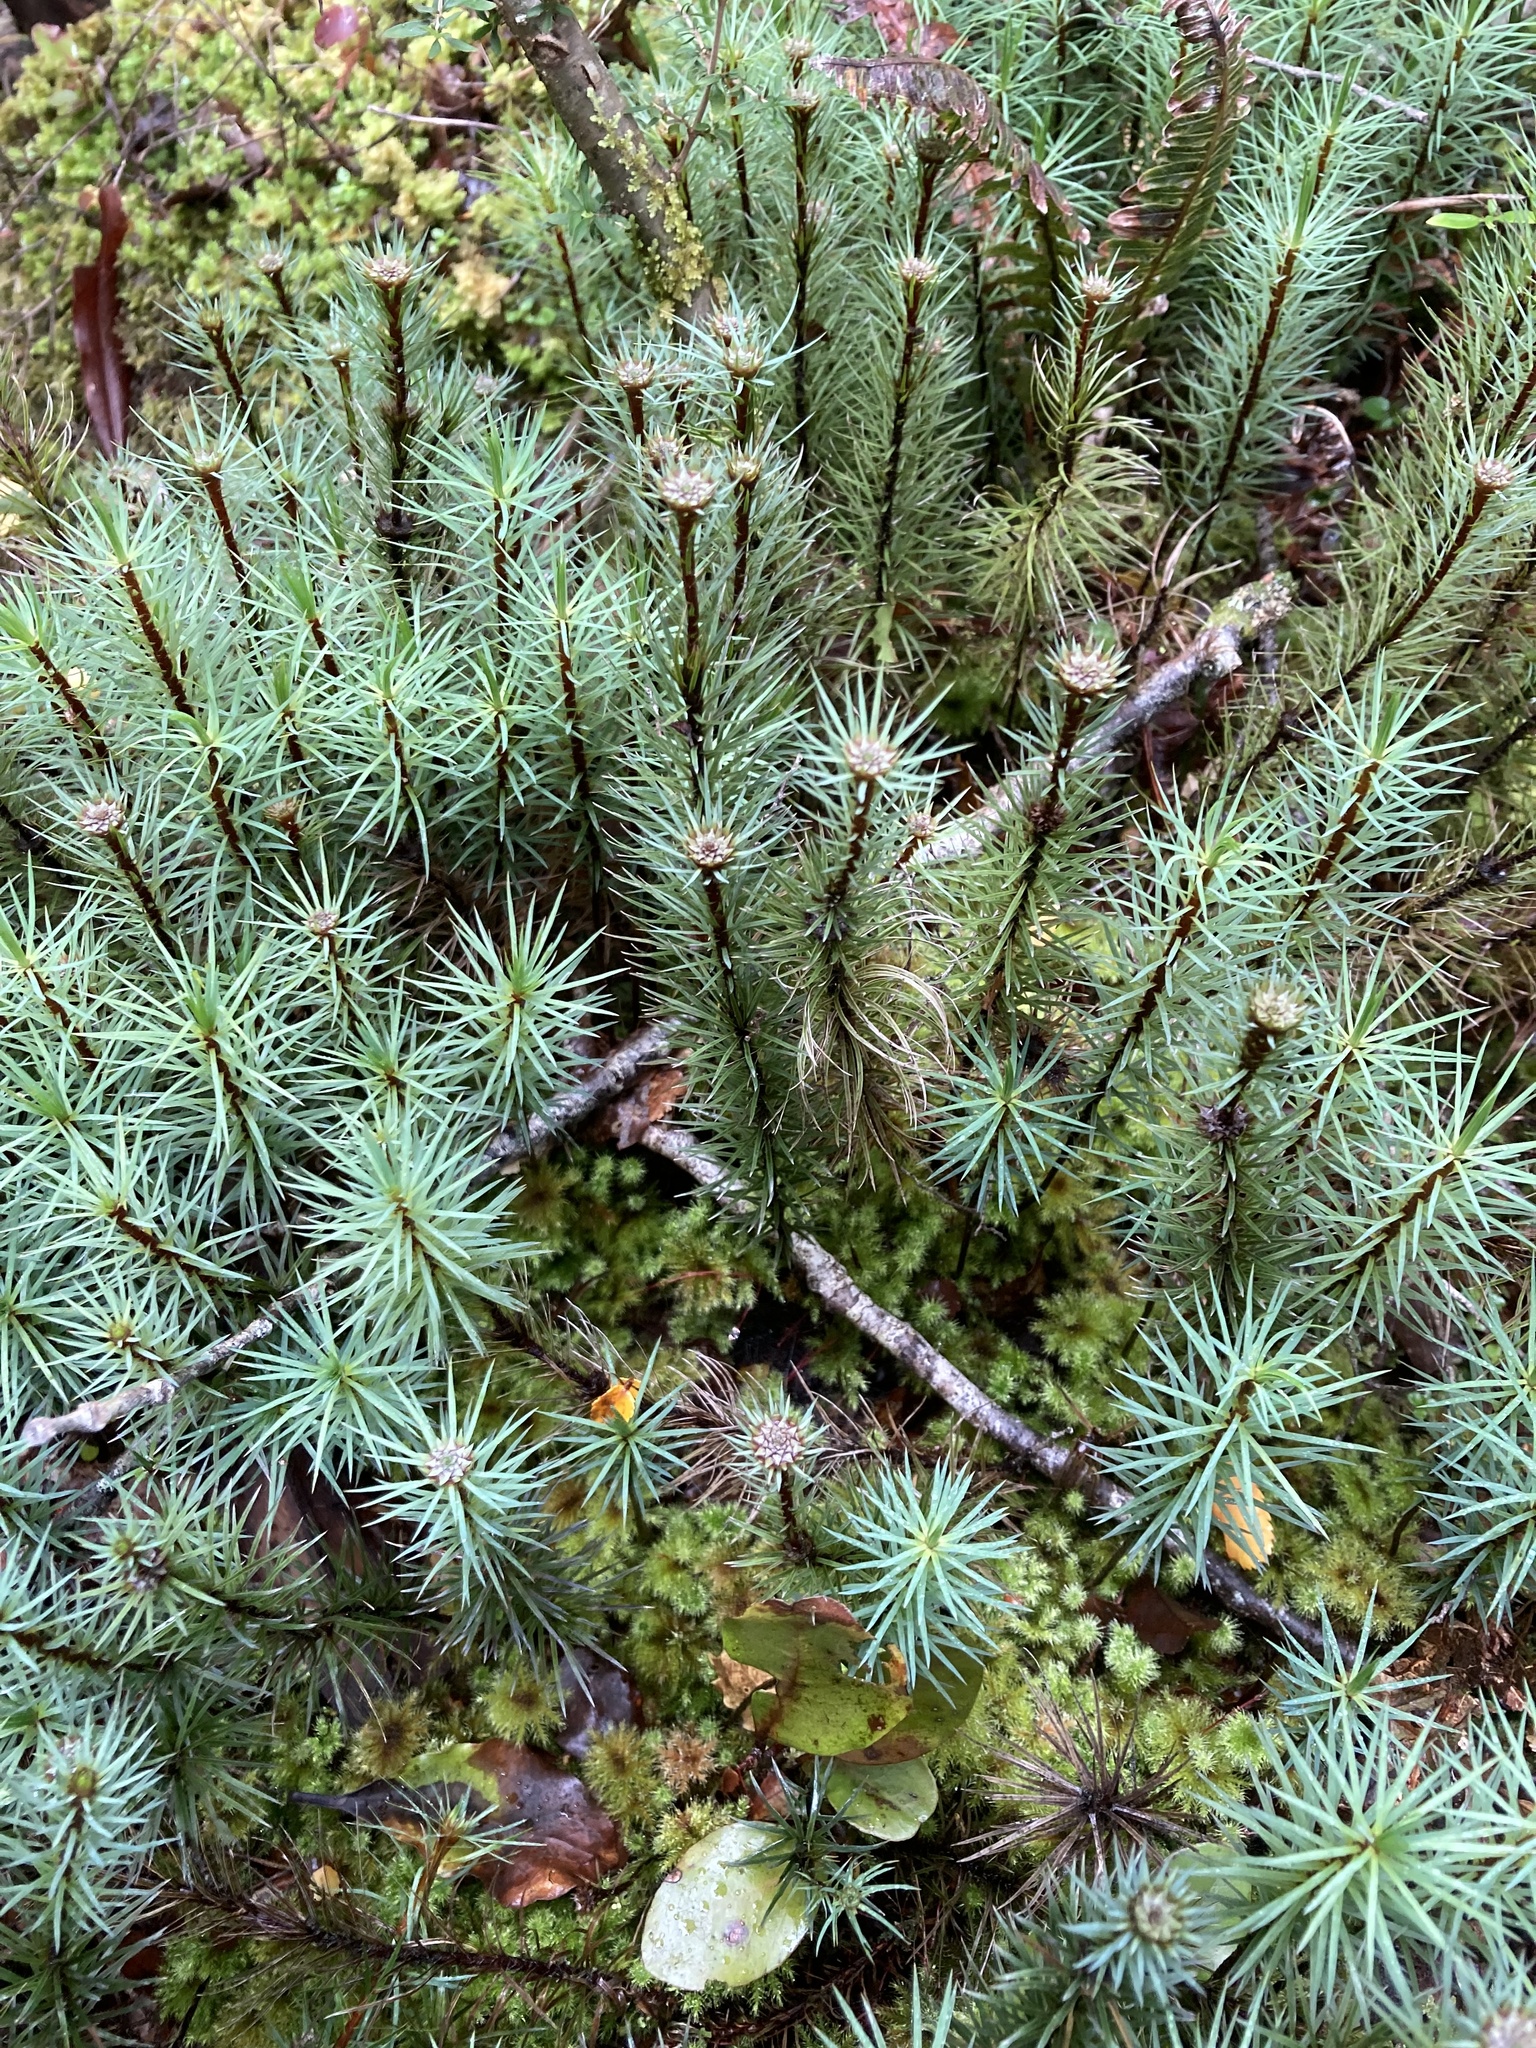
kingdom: Plantae
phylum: Bryophyta
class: Polytrichopsida
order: Polytrichales
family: Polytrichaceae
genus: Dawsonia
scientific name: Dawsonia superba
